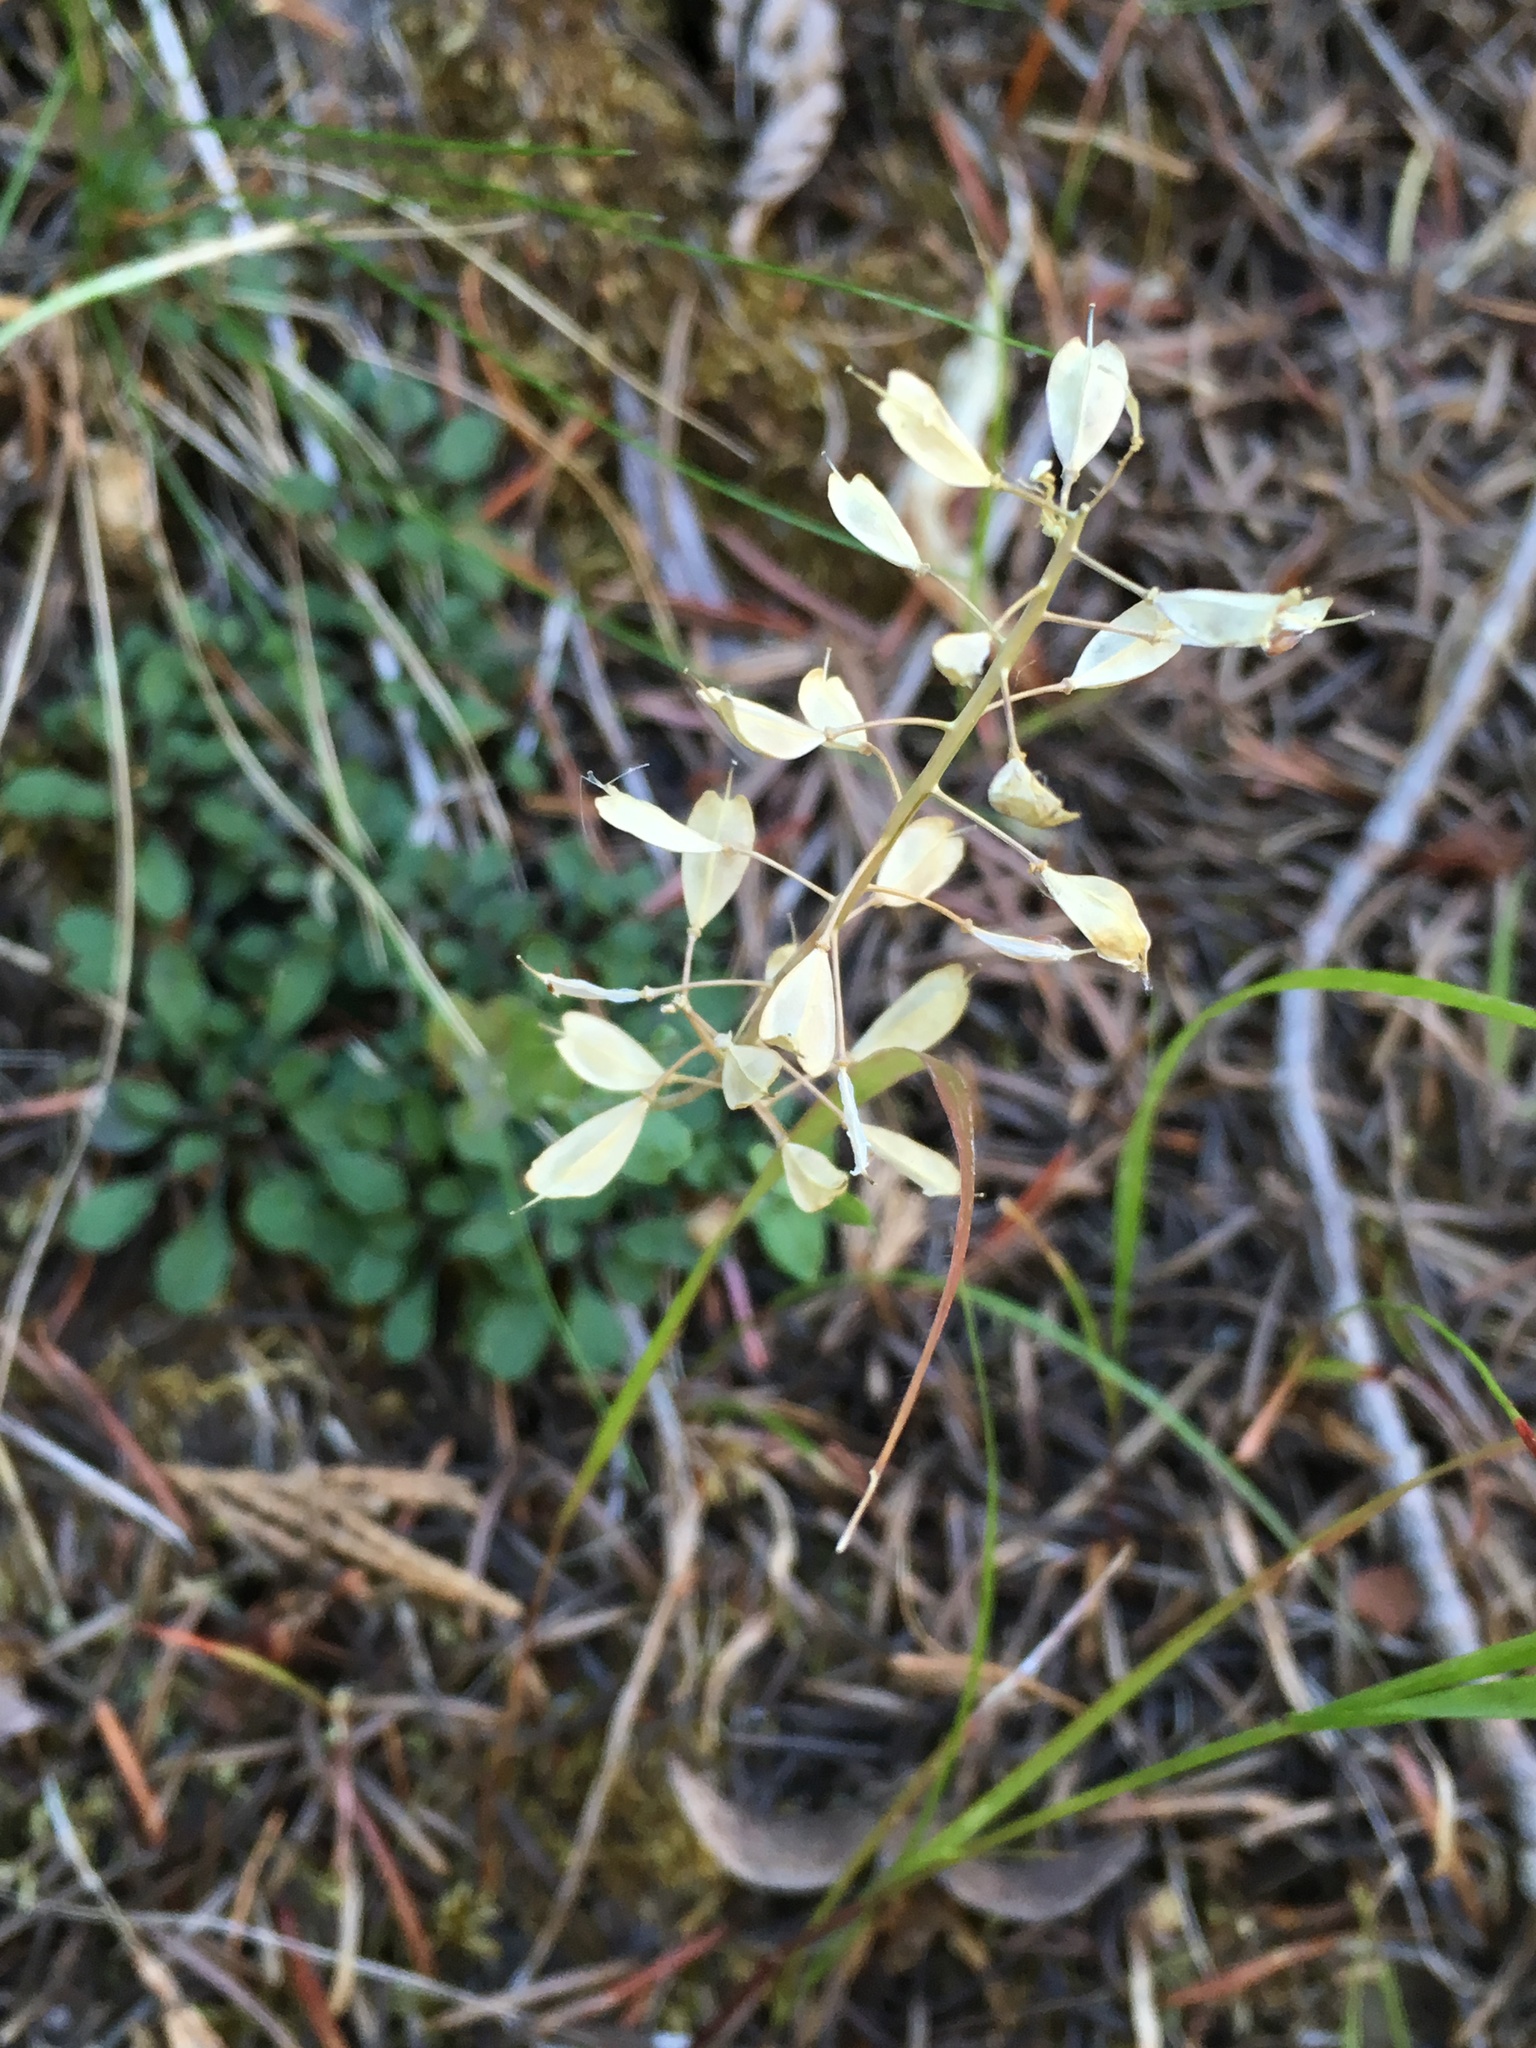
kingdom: Plantae
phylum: Tracheophyta
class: Magnoliopsida
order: Brassicales
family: Brassicaceae
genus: Noccaea
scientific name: Noccaea fendleri
